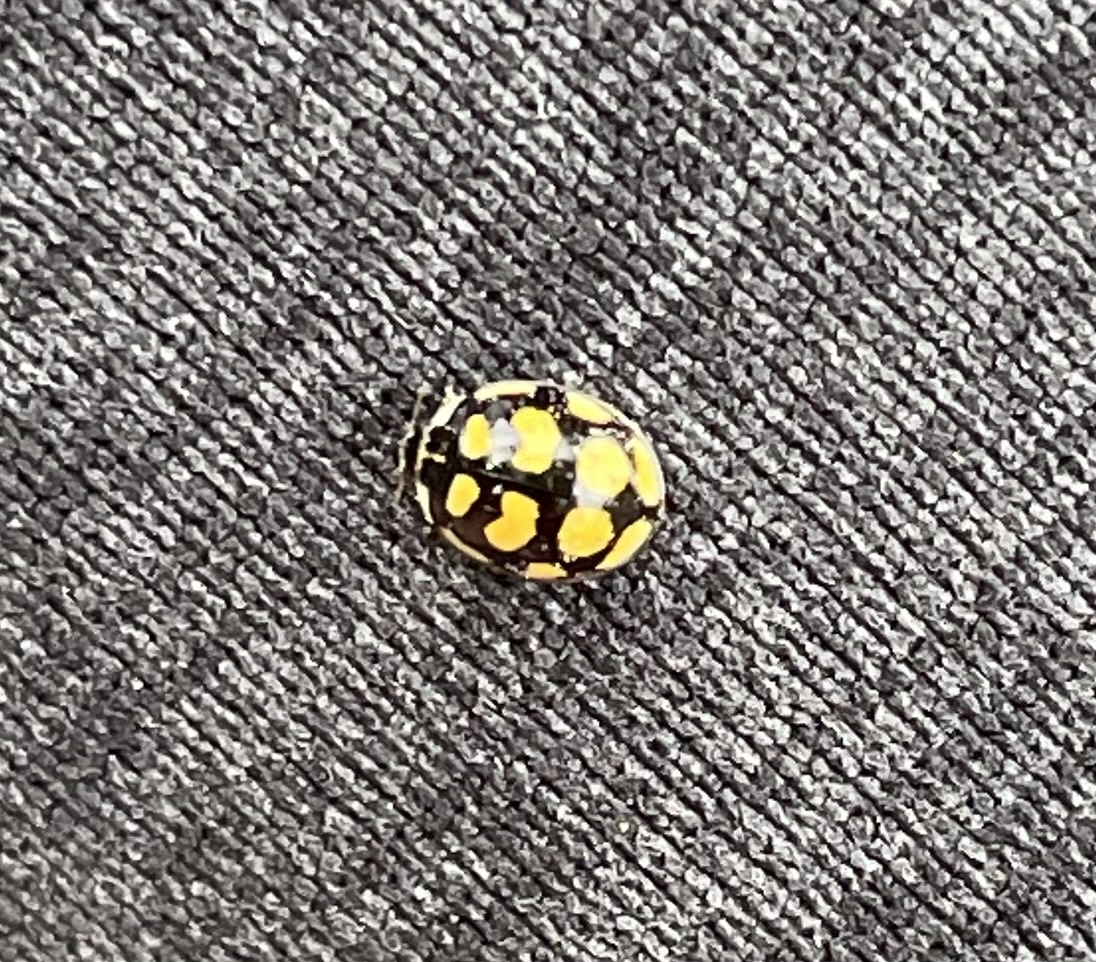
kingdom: Animalia
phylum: Arthropoda
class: Insecta
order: Coleoptera
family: Coccinellidae
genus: Oenopia
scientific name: Oenopia lyncea
